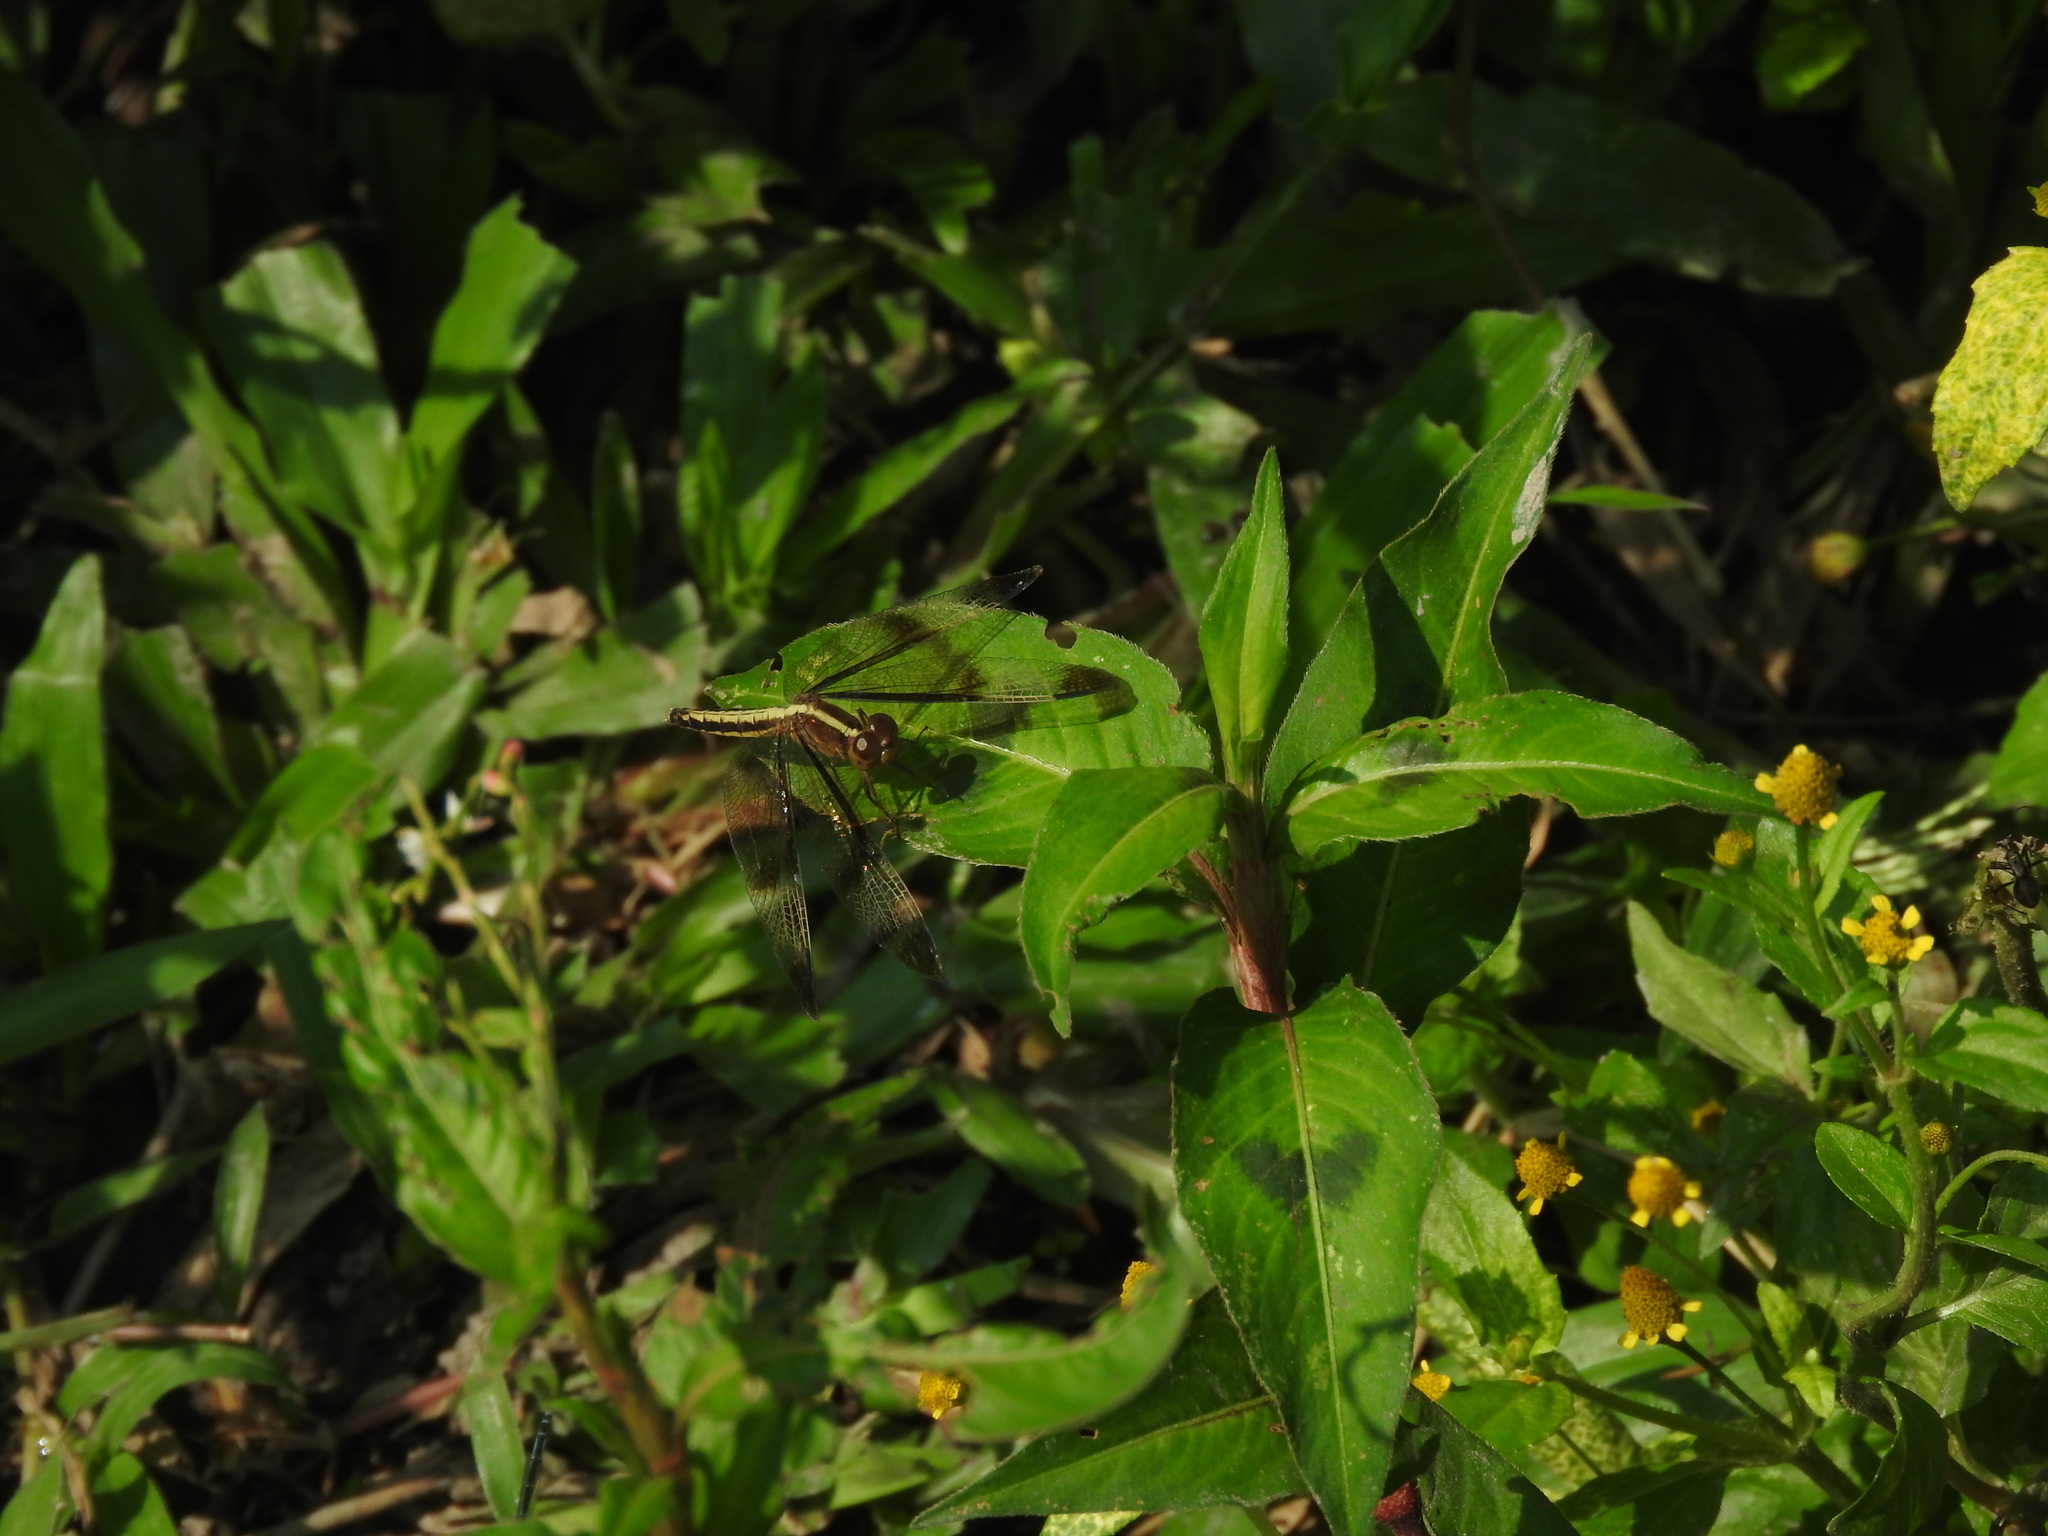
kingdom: Animalia
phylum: Arthropoda
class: Insecta
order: Odonata
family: Libellulidae
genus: Neurothemis
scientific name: Neurothemis tullia
